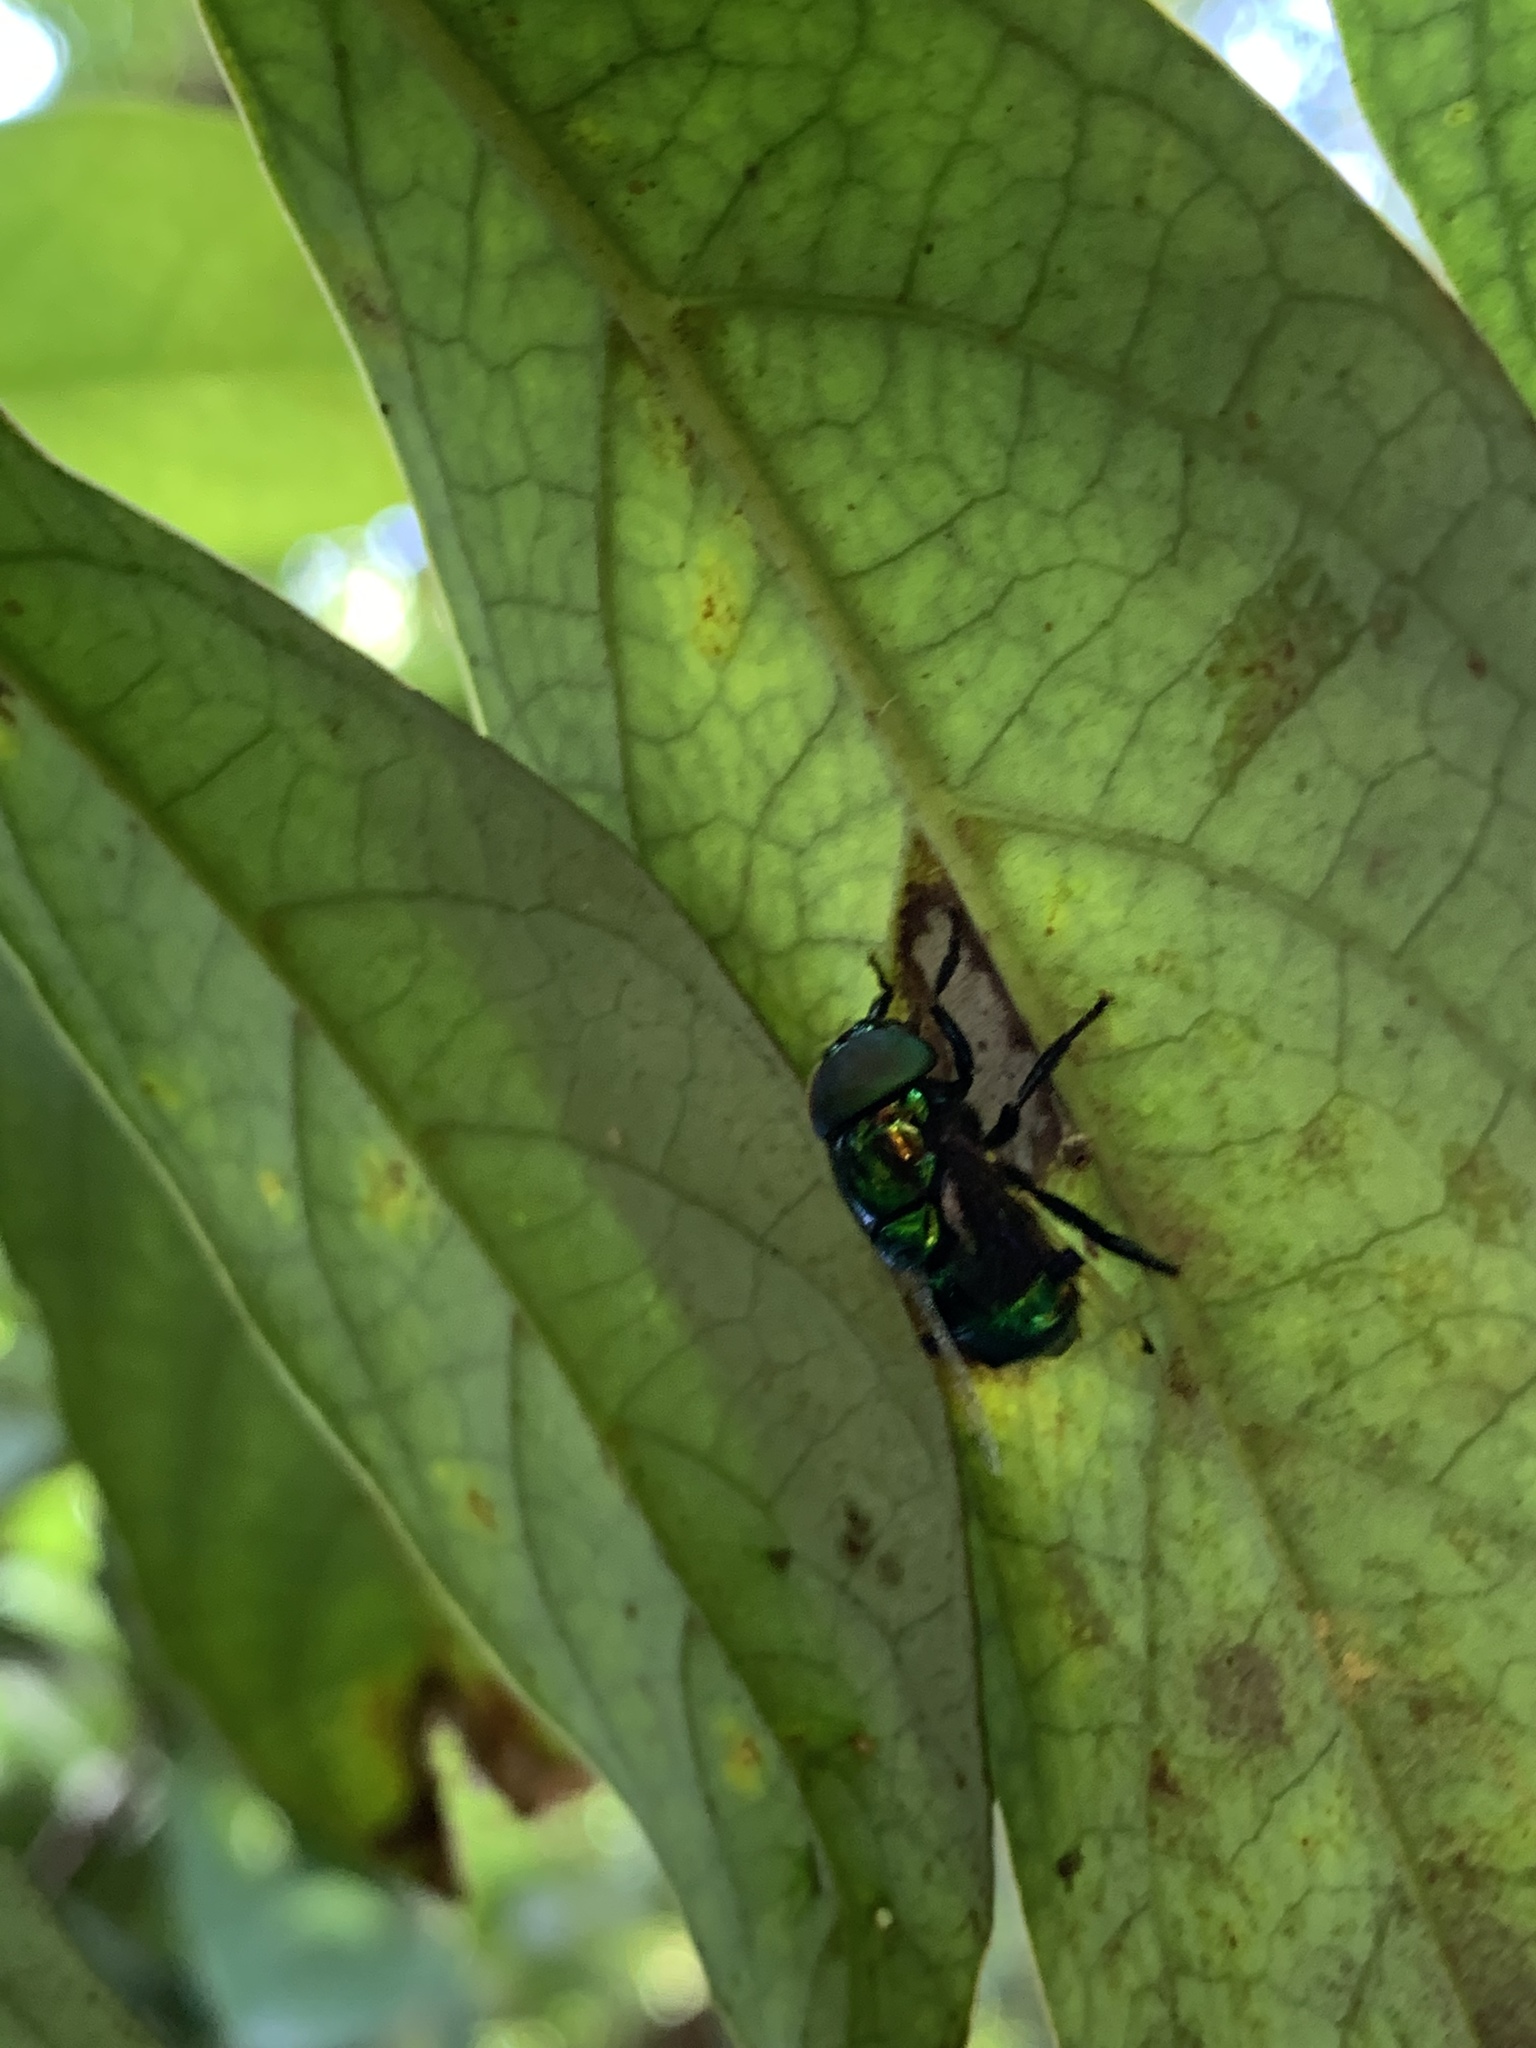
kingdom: Animalia
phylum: Arthropoda
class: Insecta
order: Diptera
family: Syrphidae
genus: Ornidia
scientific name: Ornidia obesa
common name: Syrphid fly
